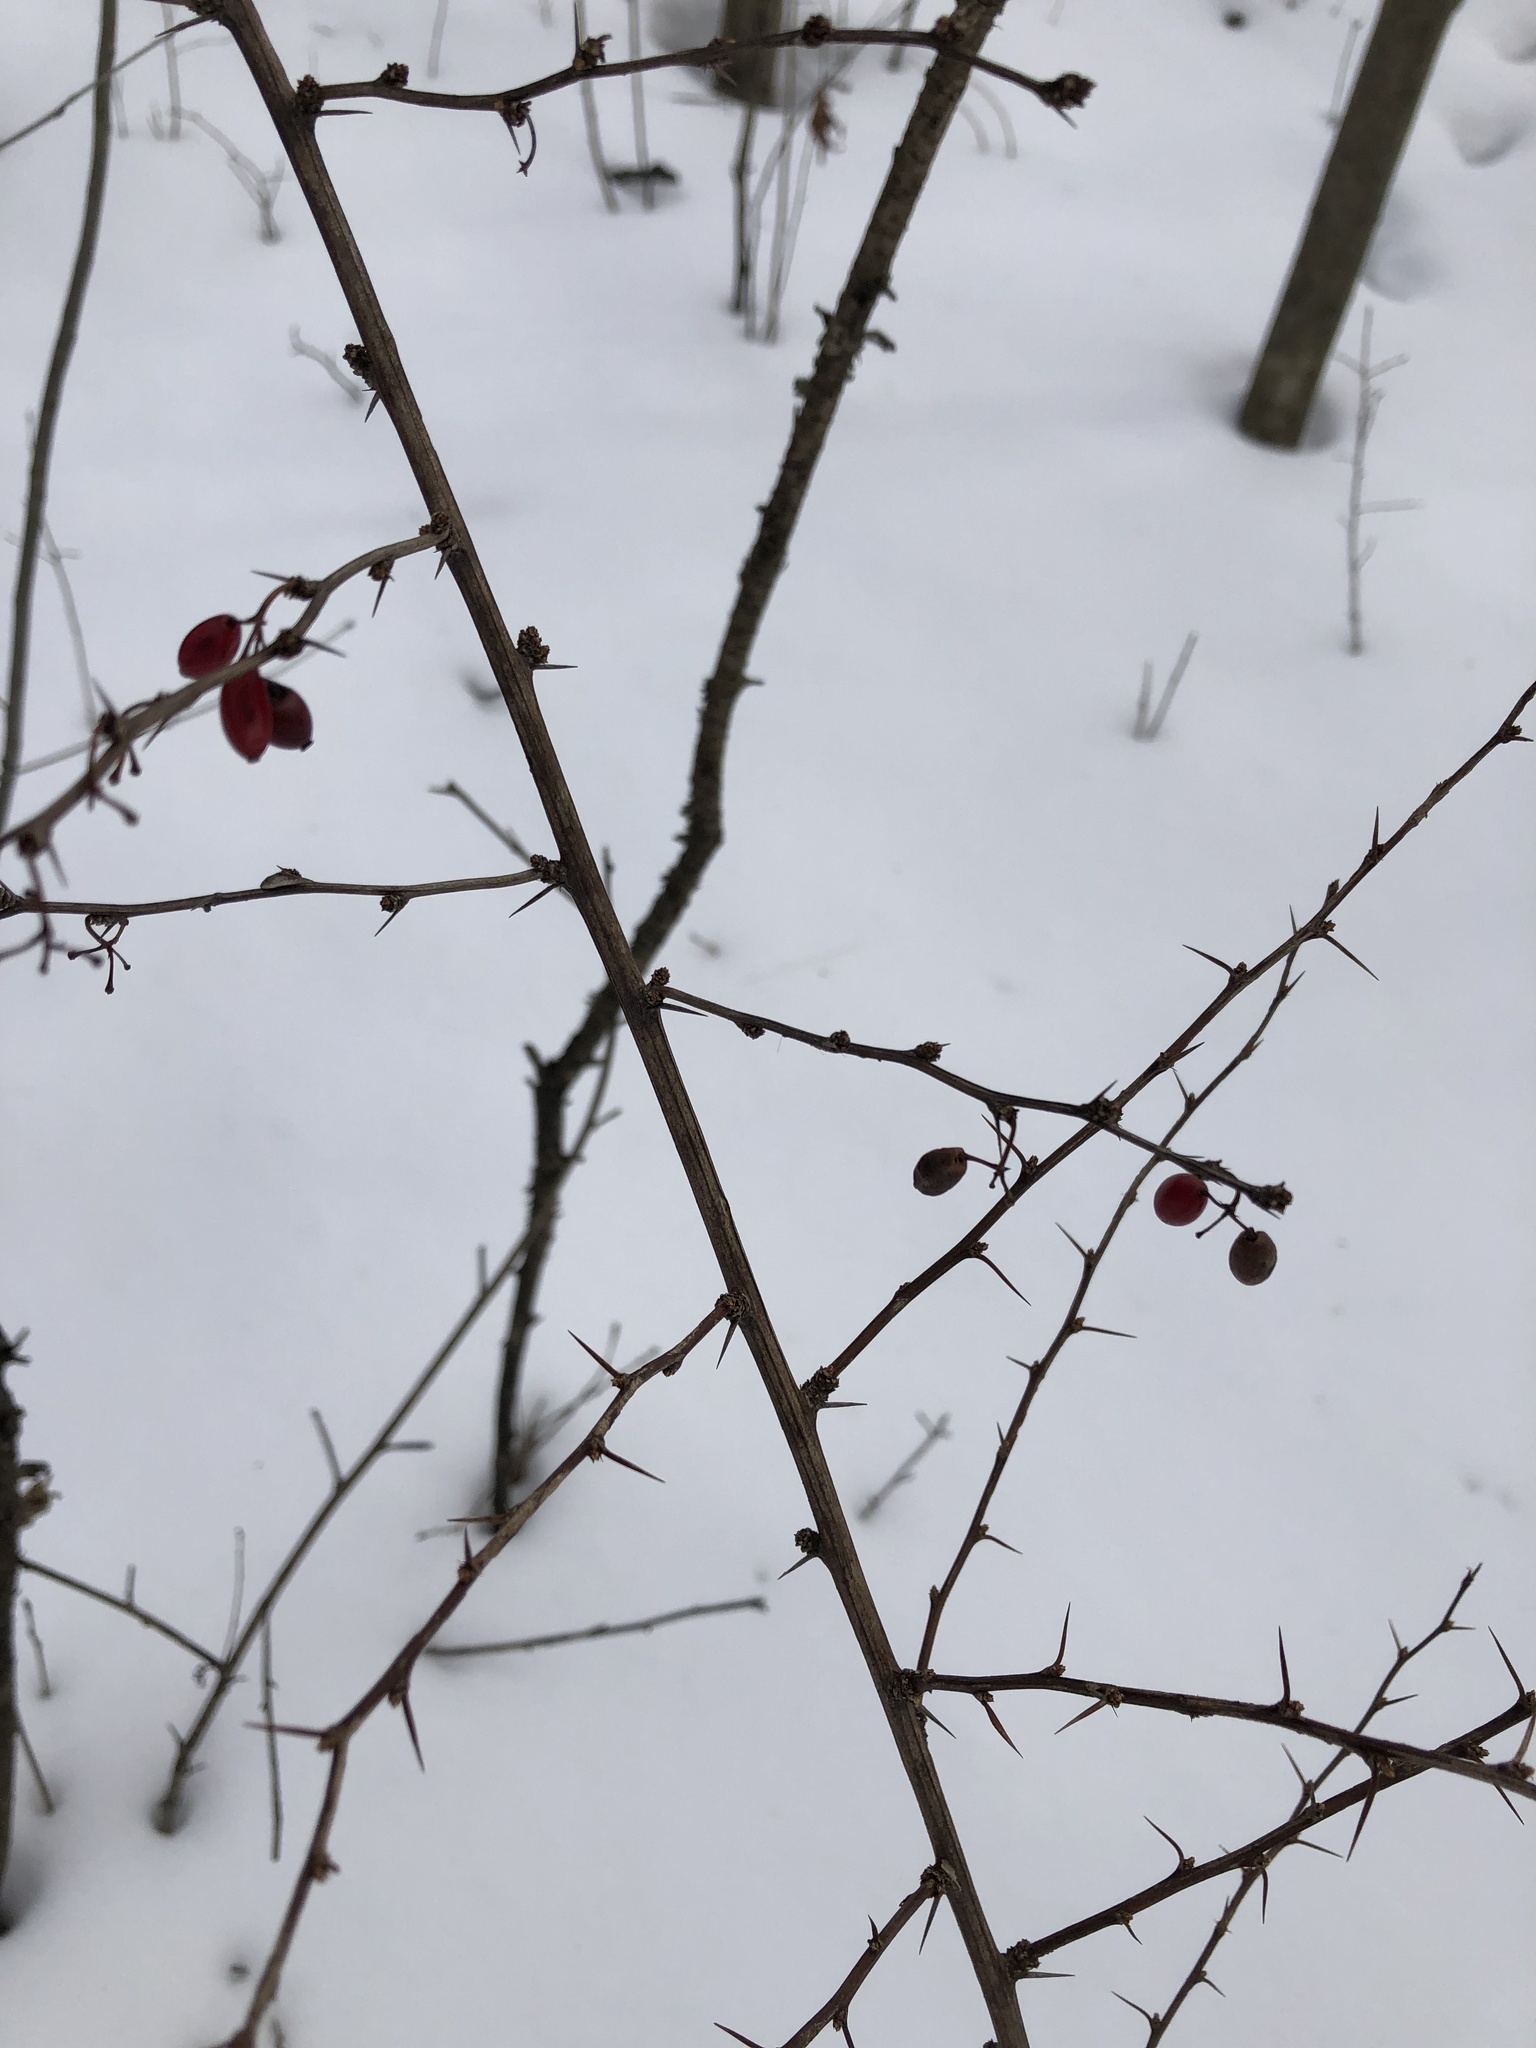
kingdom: Plantae
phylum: Tracheophyta
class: Magnoliopsida
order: Ranunculales
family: Berberidaceae
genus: Berberis
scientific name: Berberis thunbergii
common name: Japanese barberry
